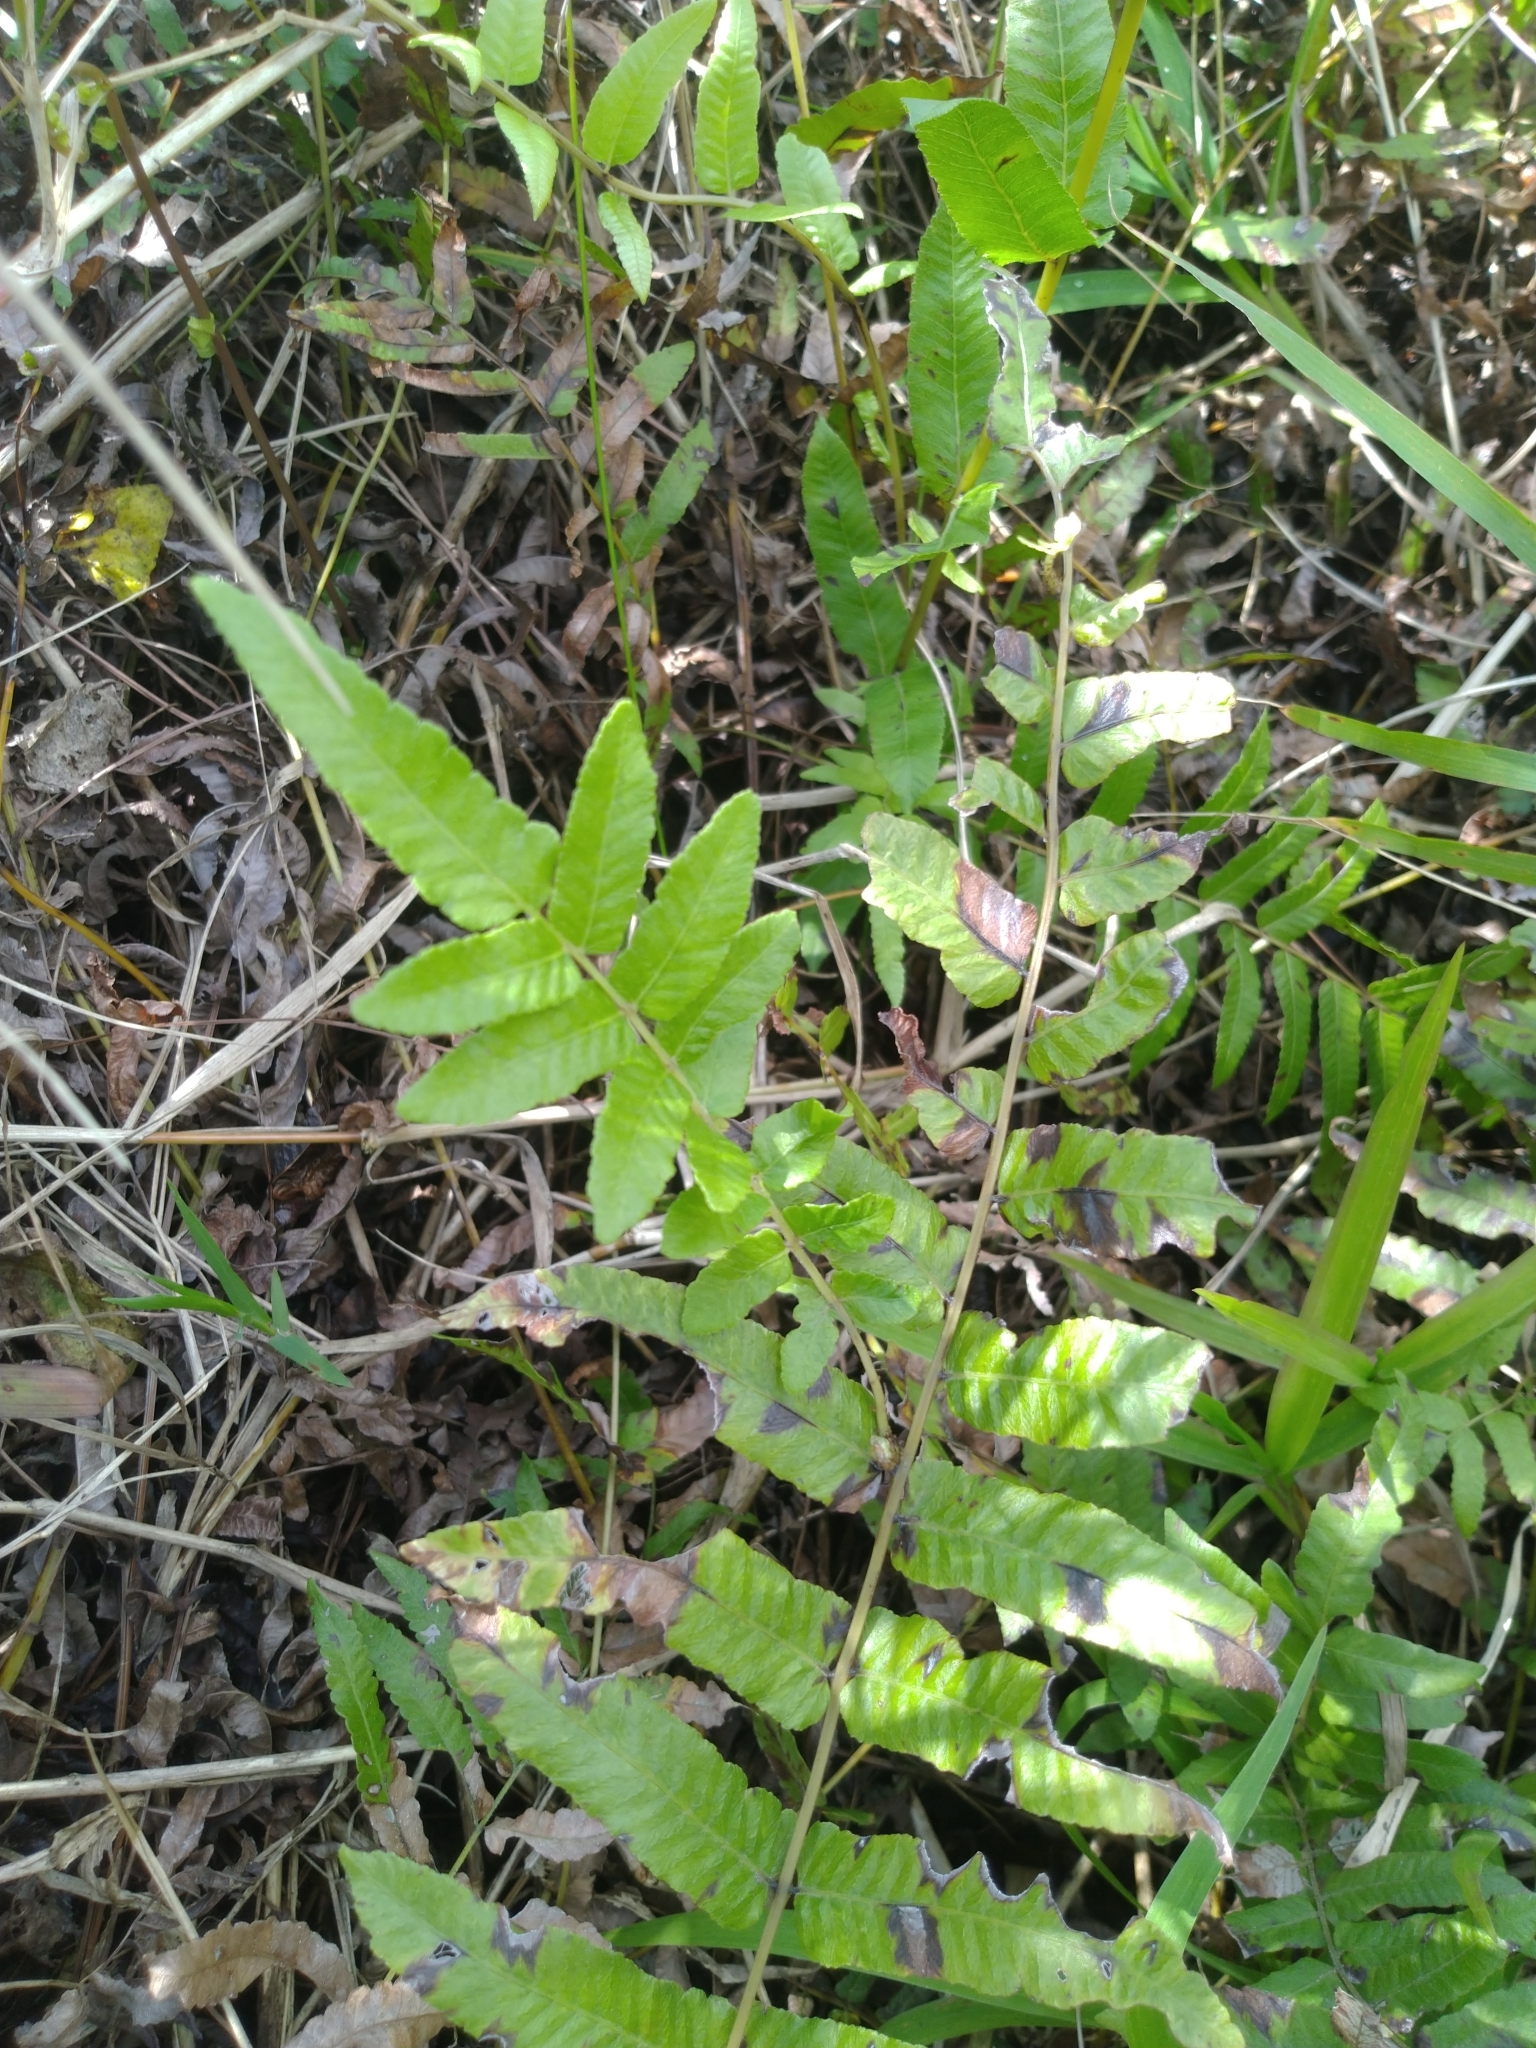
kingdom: Plantae
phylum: Tracheophyta
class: Polypodiopsida
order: Polypodiales
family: Thelypteridaceae
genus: Ampelopteris
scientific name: Ampelopteris prolifera
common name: Riverine scrambler
